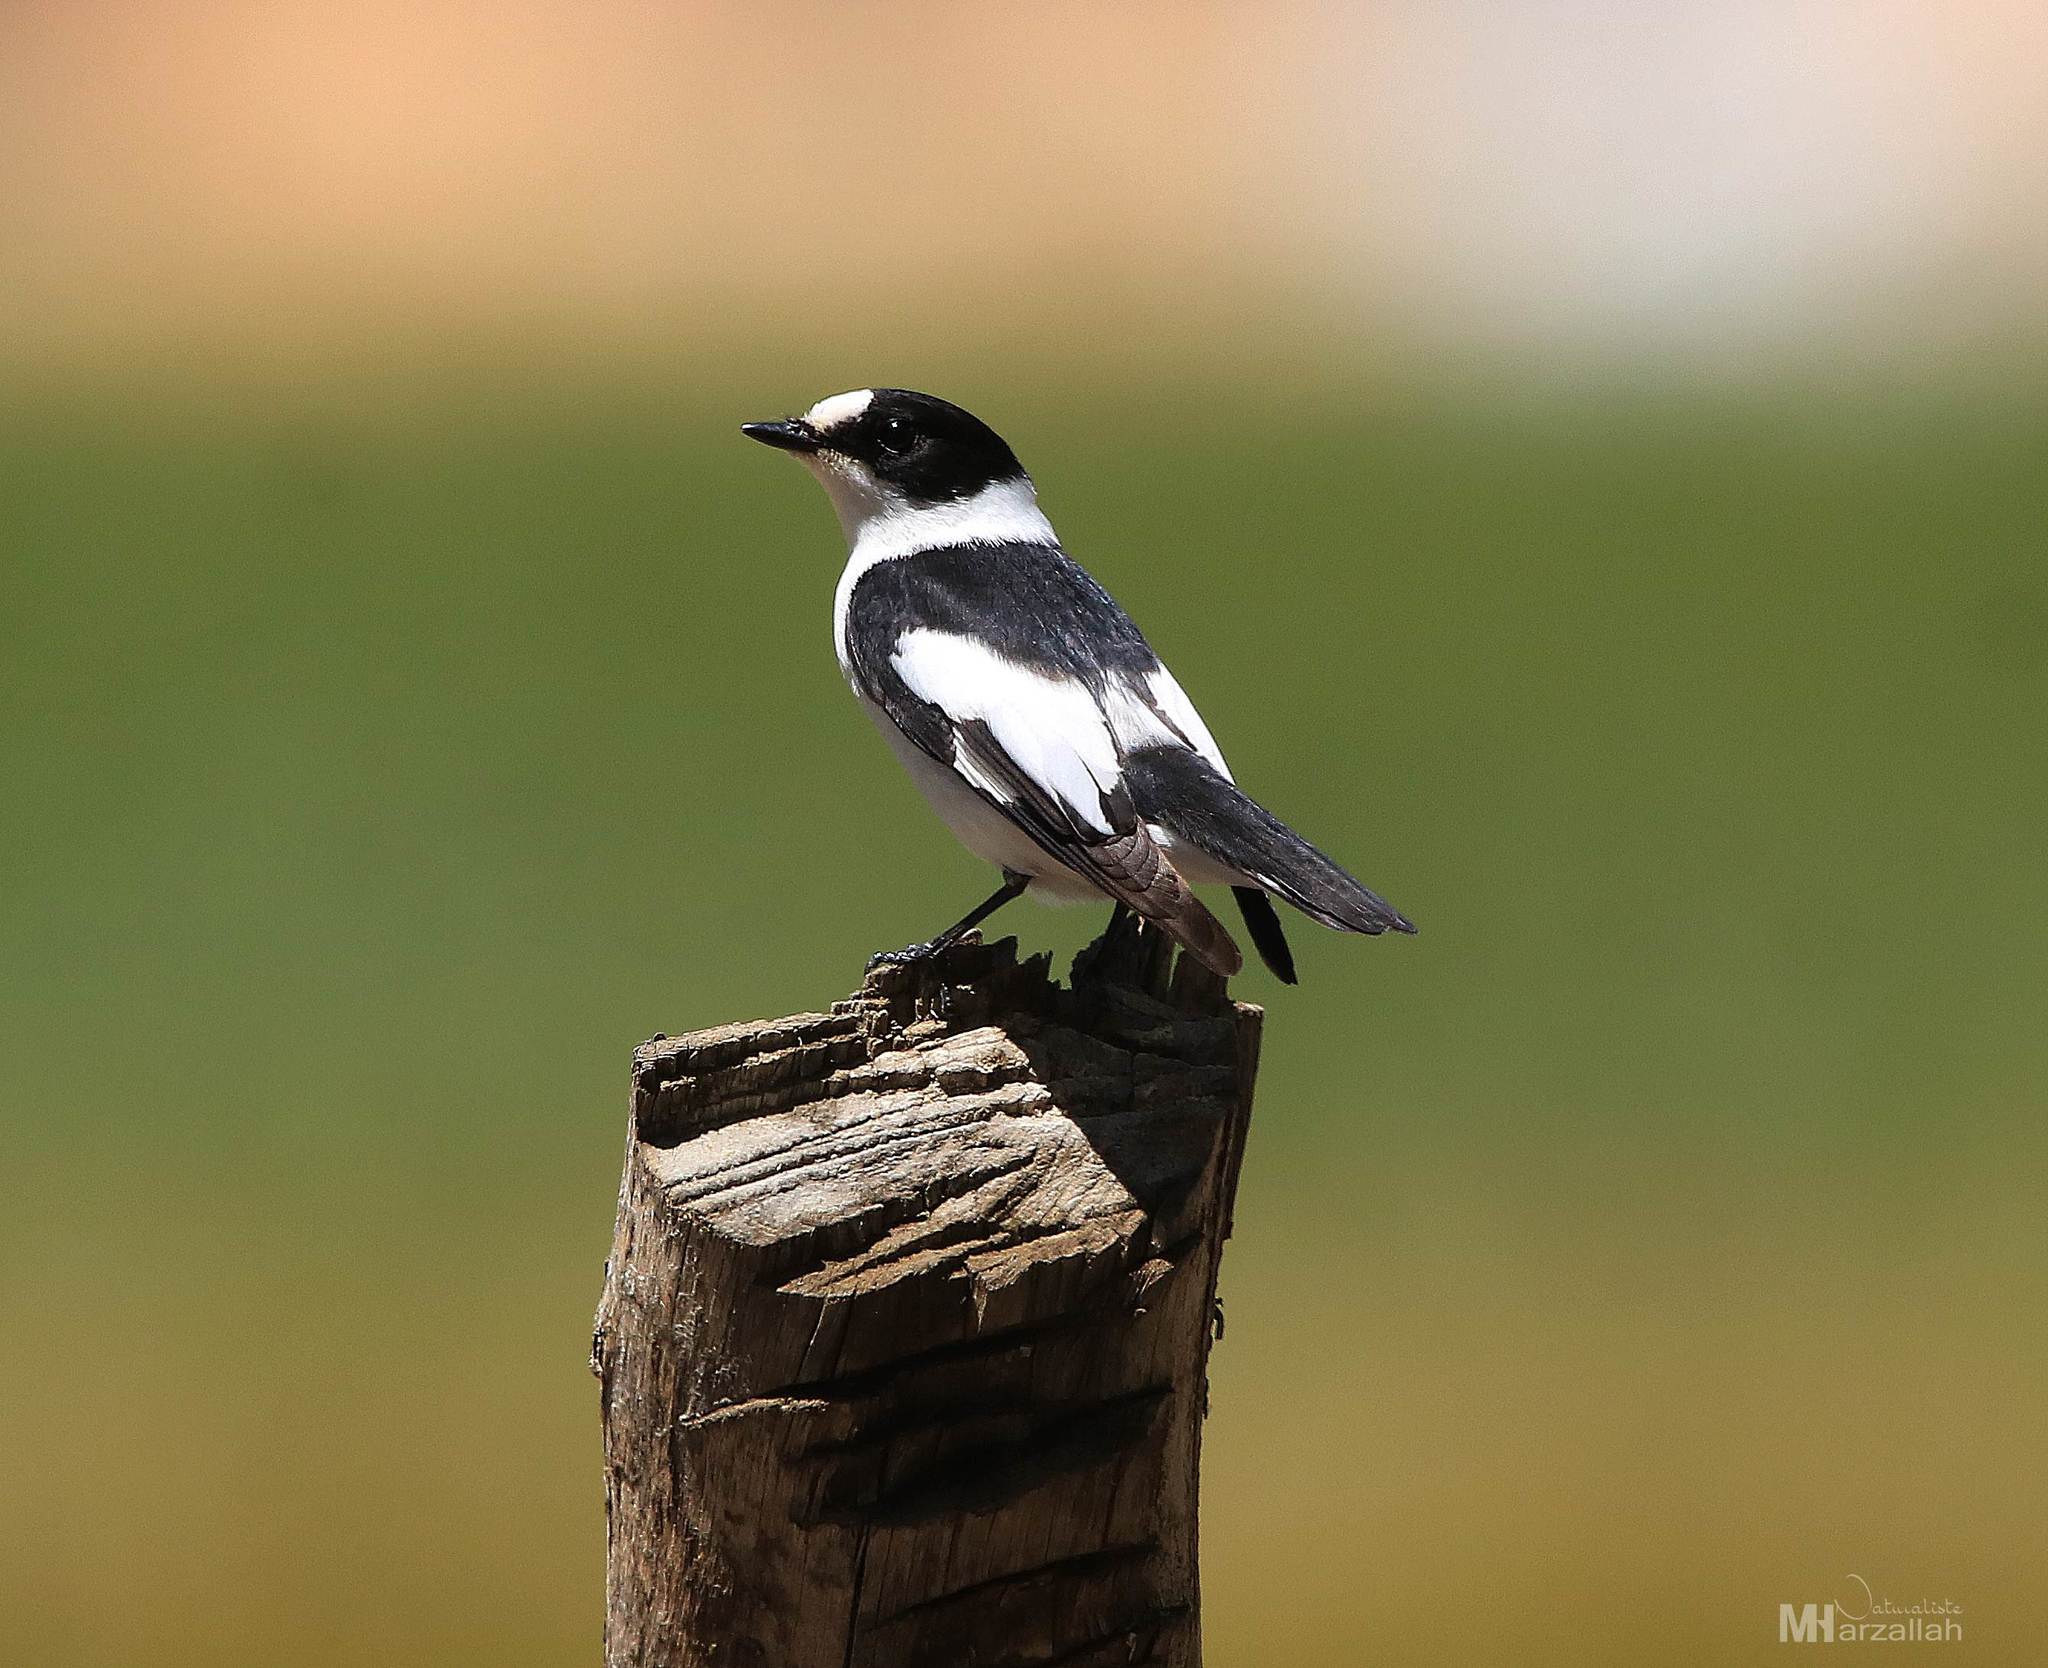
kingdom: Animalia
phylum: Chordata
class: Aves
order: Passeriformes
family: Muscicapidae
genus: Ficedula
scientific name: Ficedula albicollis
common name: Collared flycatcher
